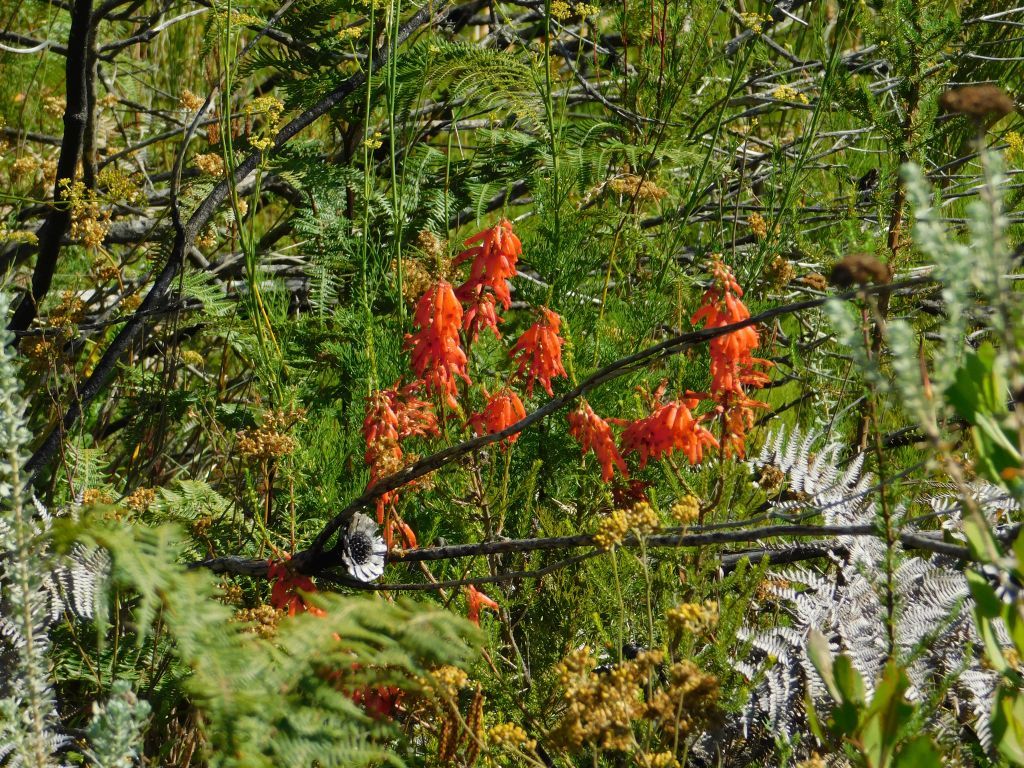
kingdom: Plantae
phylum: Tracheophyta
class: Magnoliopsida
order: Ericales
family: Ericaceae
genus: Erica
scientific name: Erica mammosa
